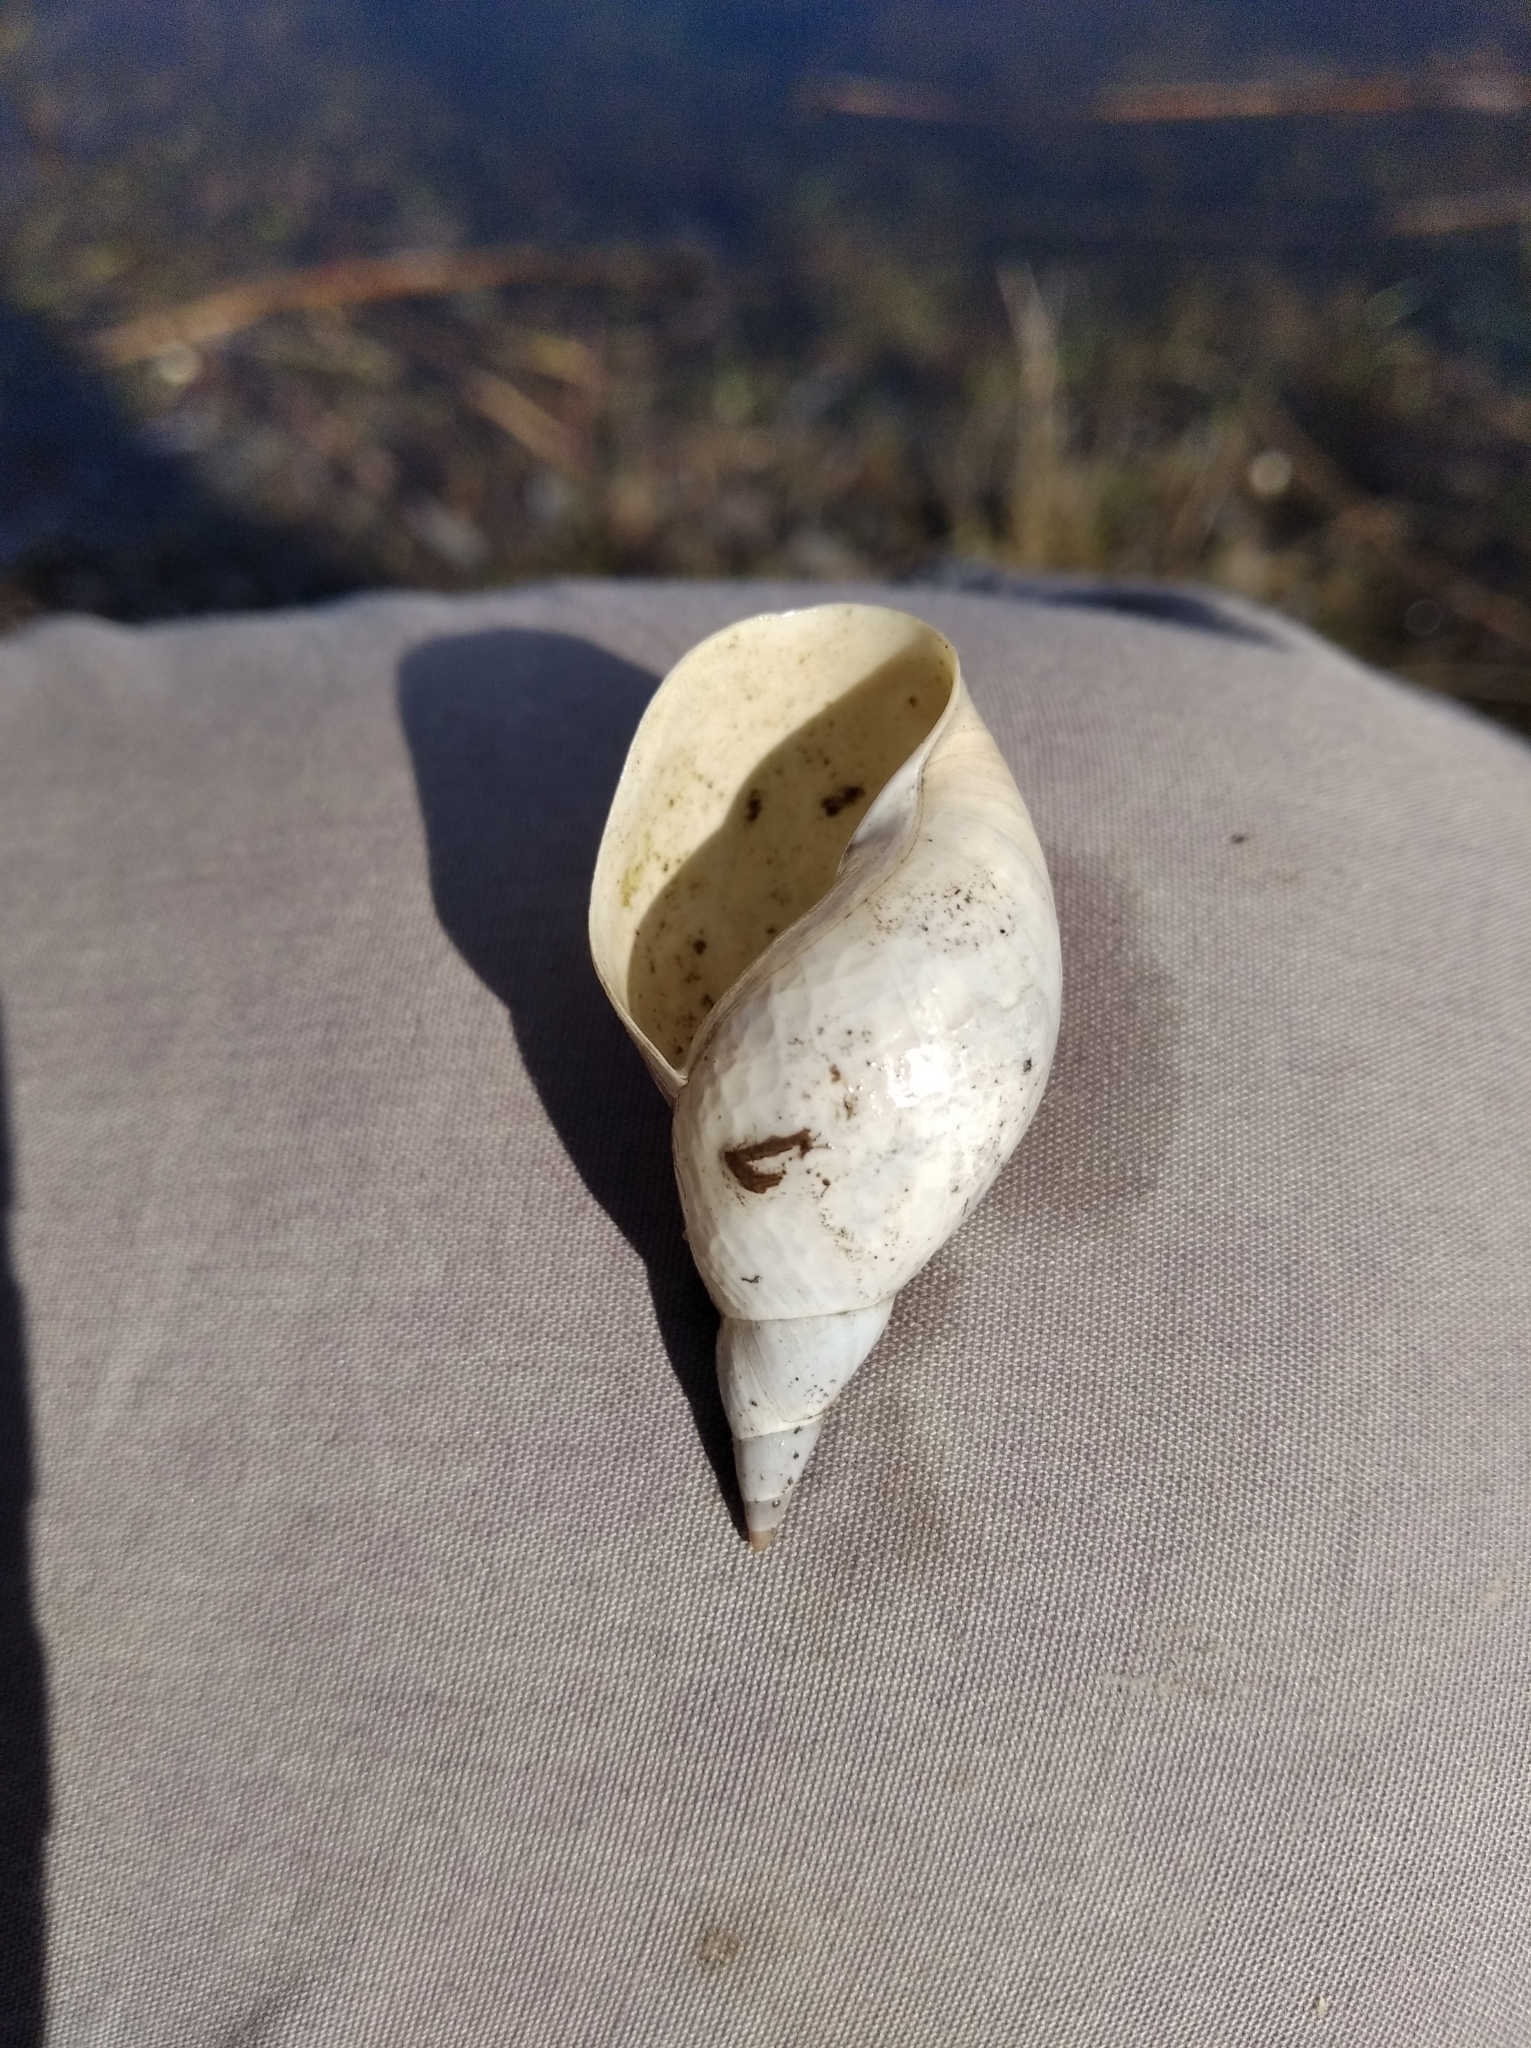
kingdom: Animalia
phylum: Mollusca
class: Gastropoda
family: Lymnaeidae
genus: Lymnaea
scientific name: Lymnaea stagnalis
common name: Great pond snail
